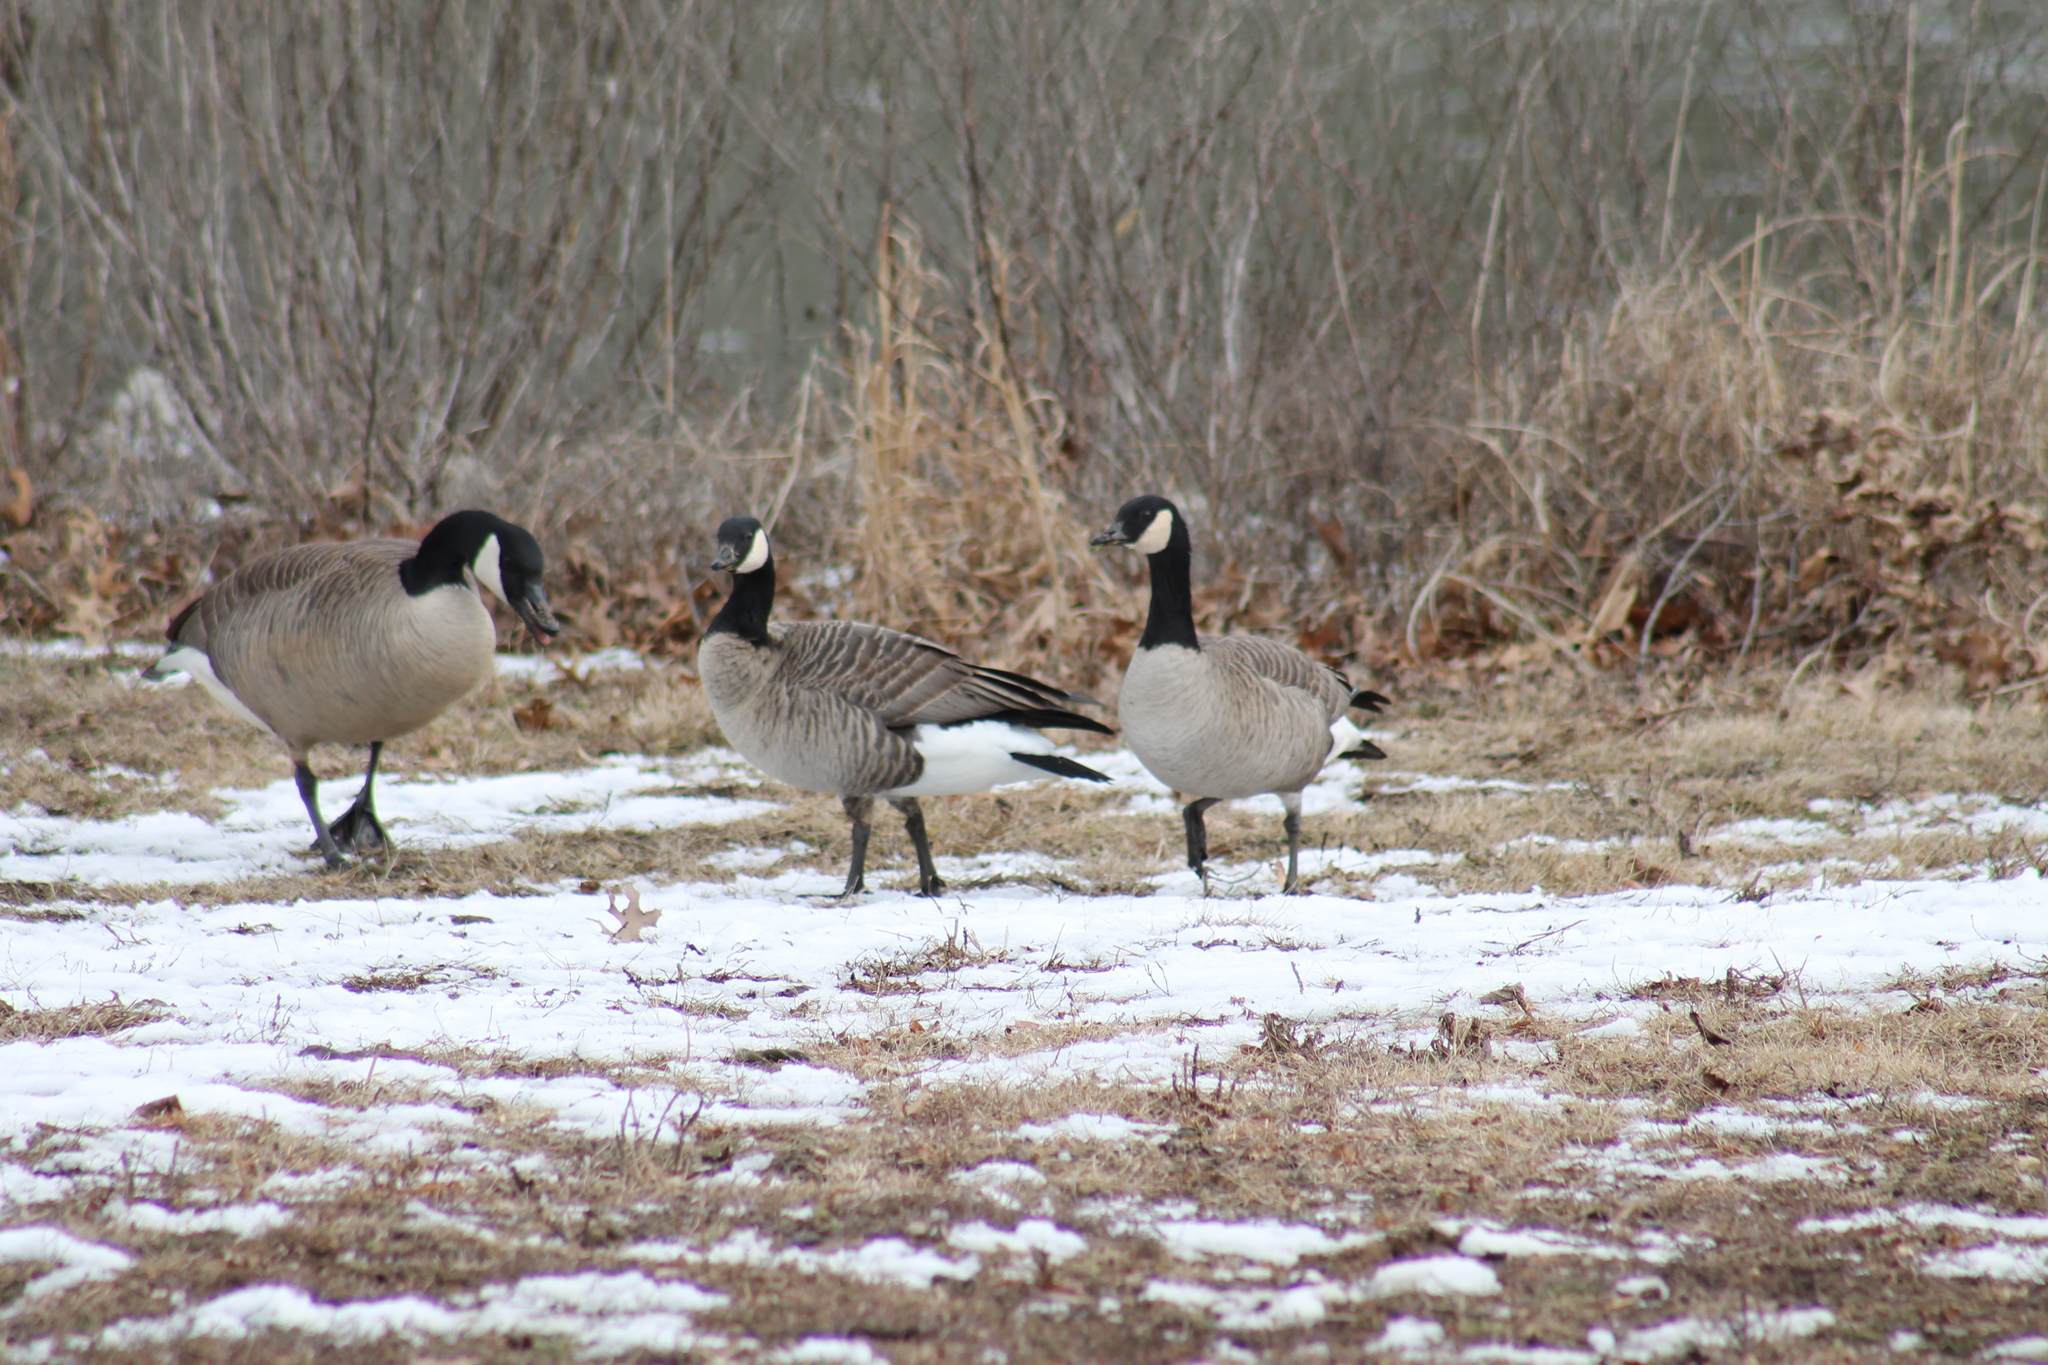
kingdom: Animalia
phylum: Chordata
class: Aves
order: Anseriformes
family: Anatidae
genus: Branta
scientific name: Branta hutchinsii
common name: Cackling goose
